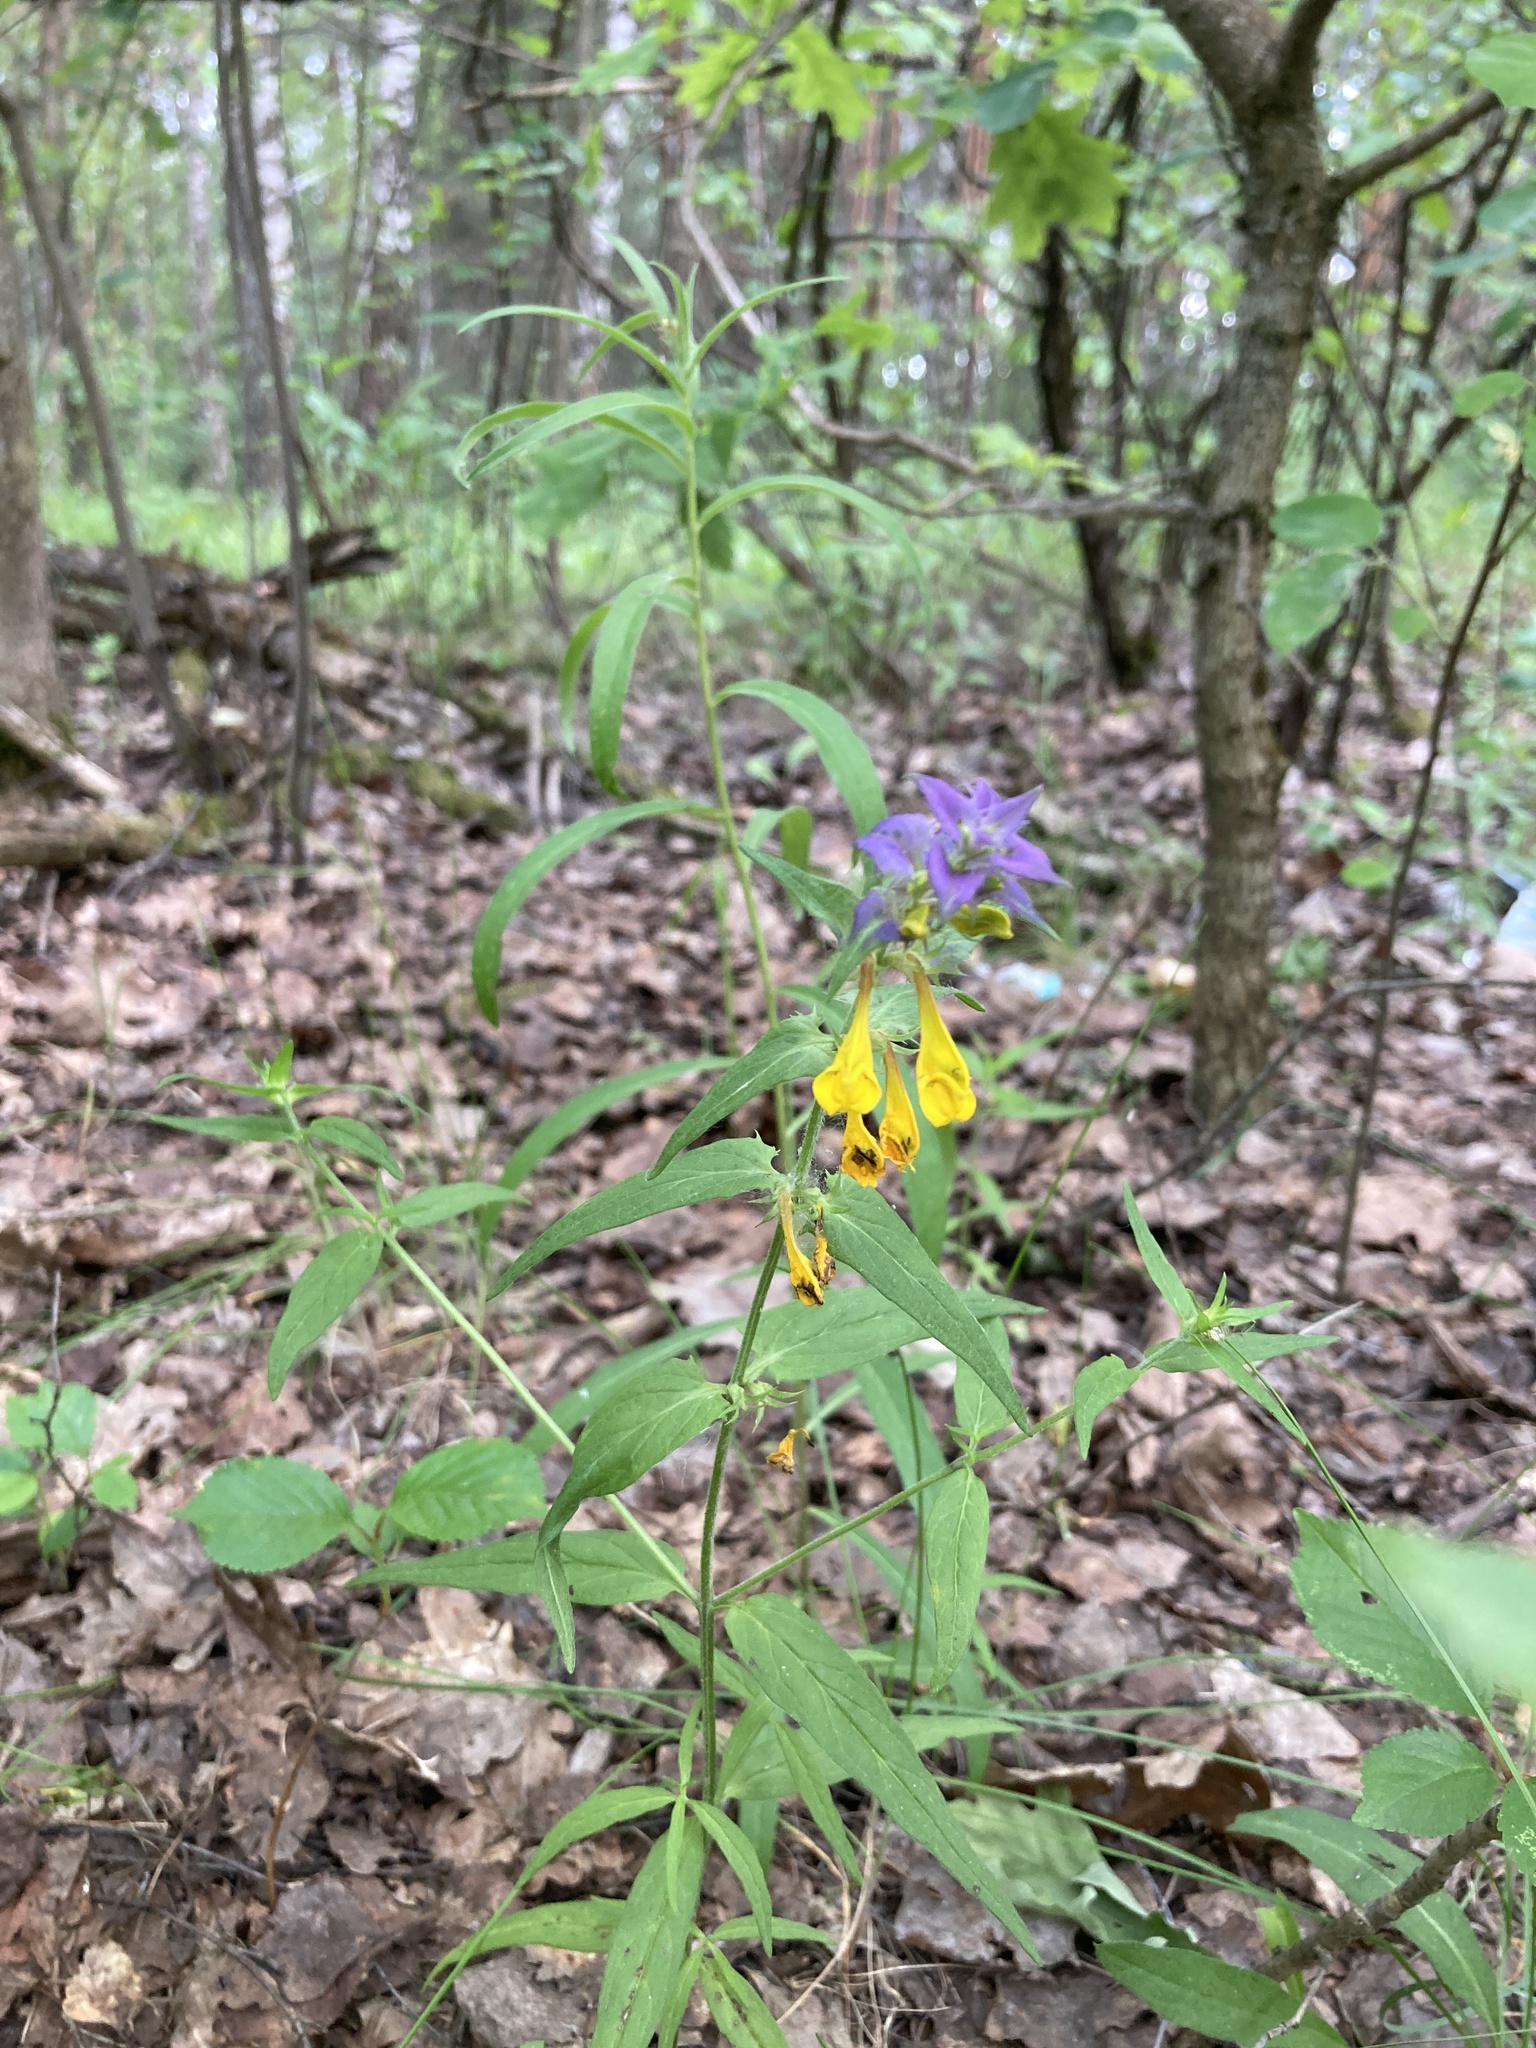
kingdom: Plantae
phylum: Tracheophyta
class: Magnoliopsida
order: Lamiales
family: Orobanchaceae
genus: Melampyrum
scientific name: Melampyrum nemorosum
